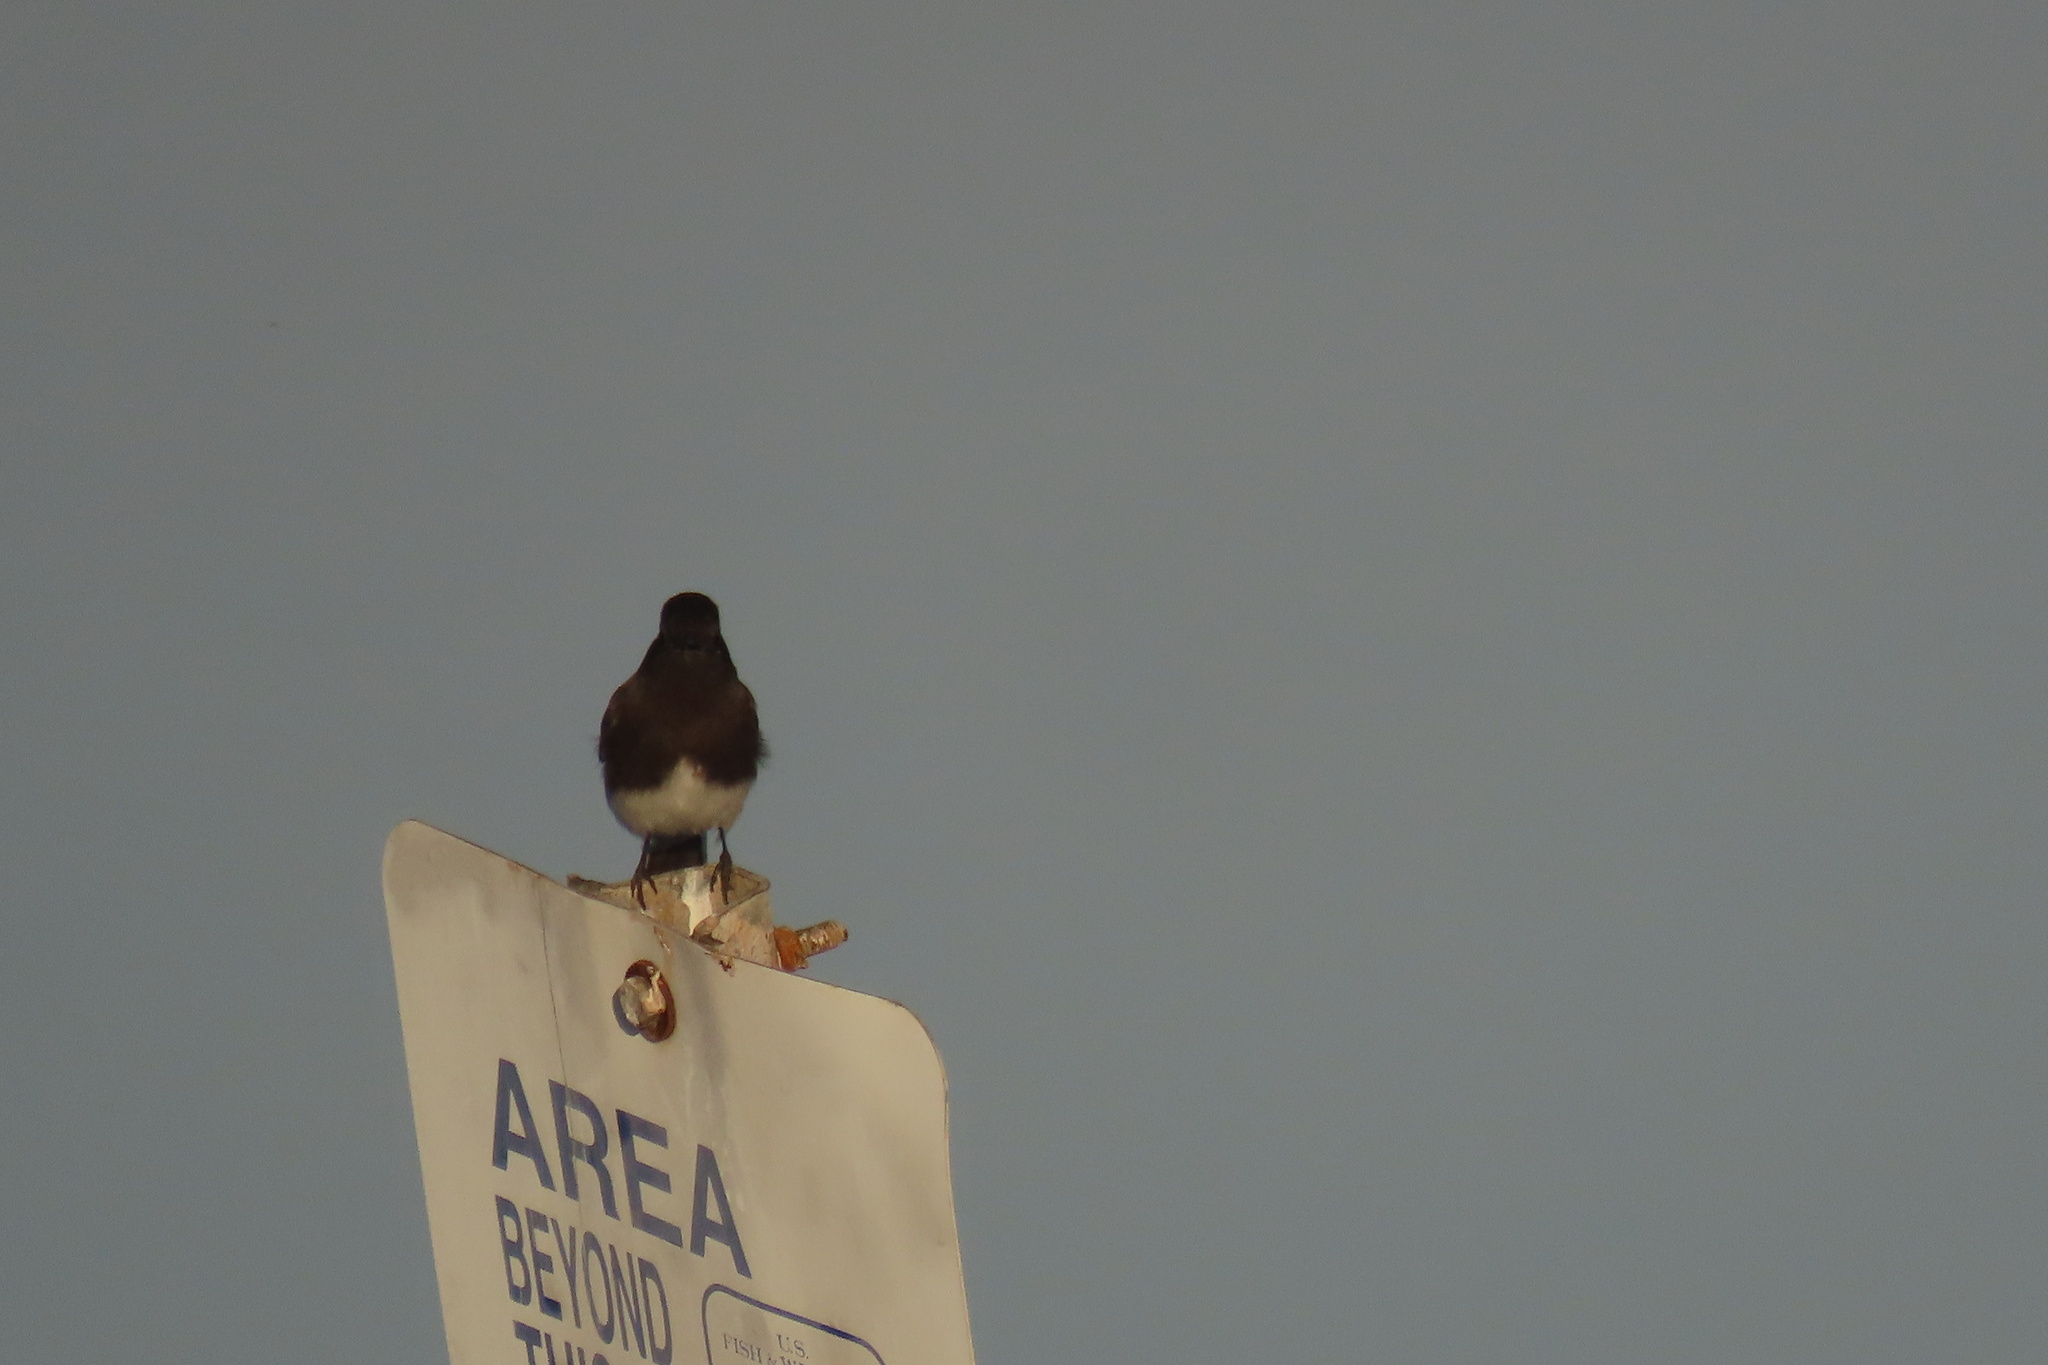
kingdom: Animalia
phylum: Chordata
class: Aves
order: Passeriformes
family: Tyrannidae
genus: Sayornis
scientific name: Sayornis nigricans
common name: Black phoebe
